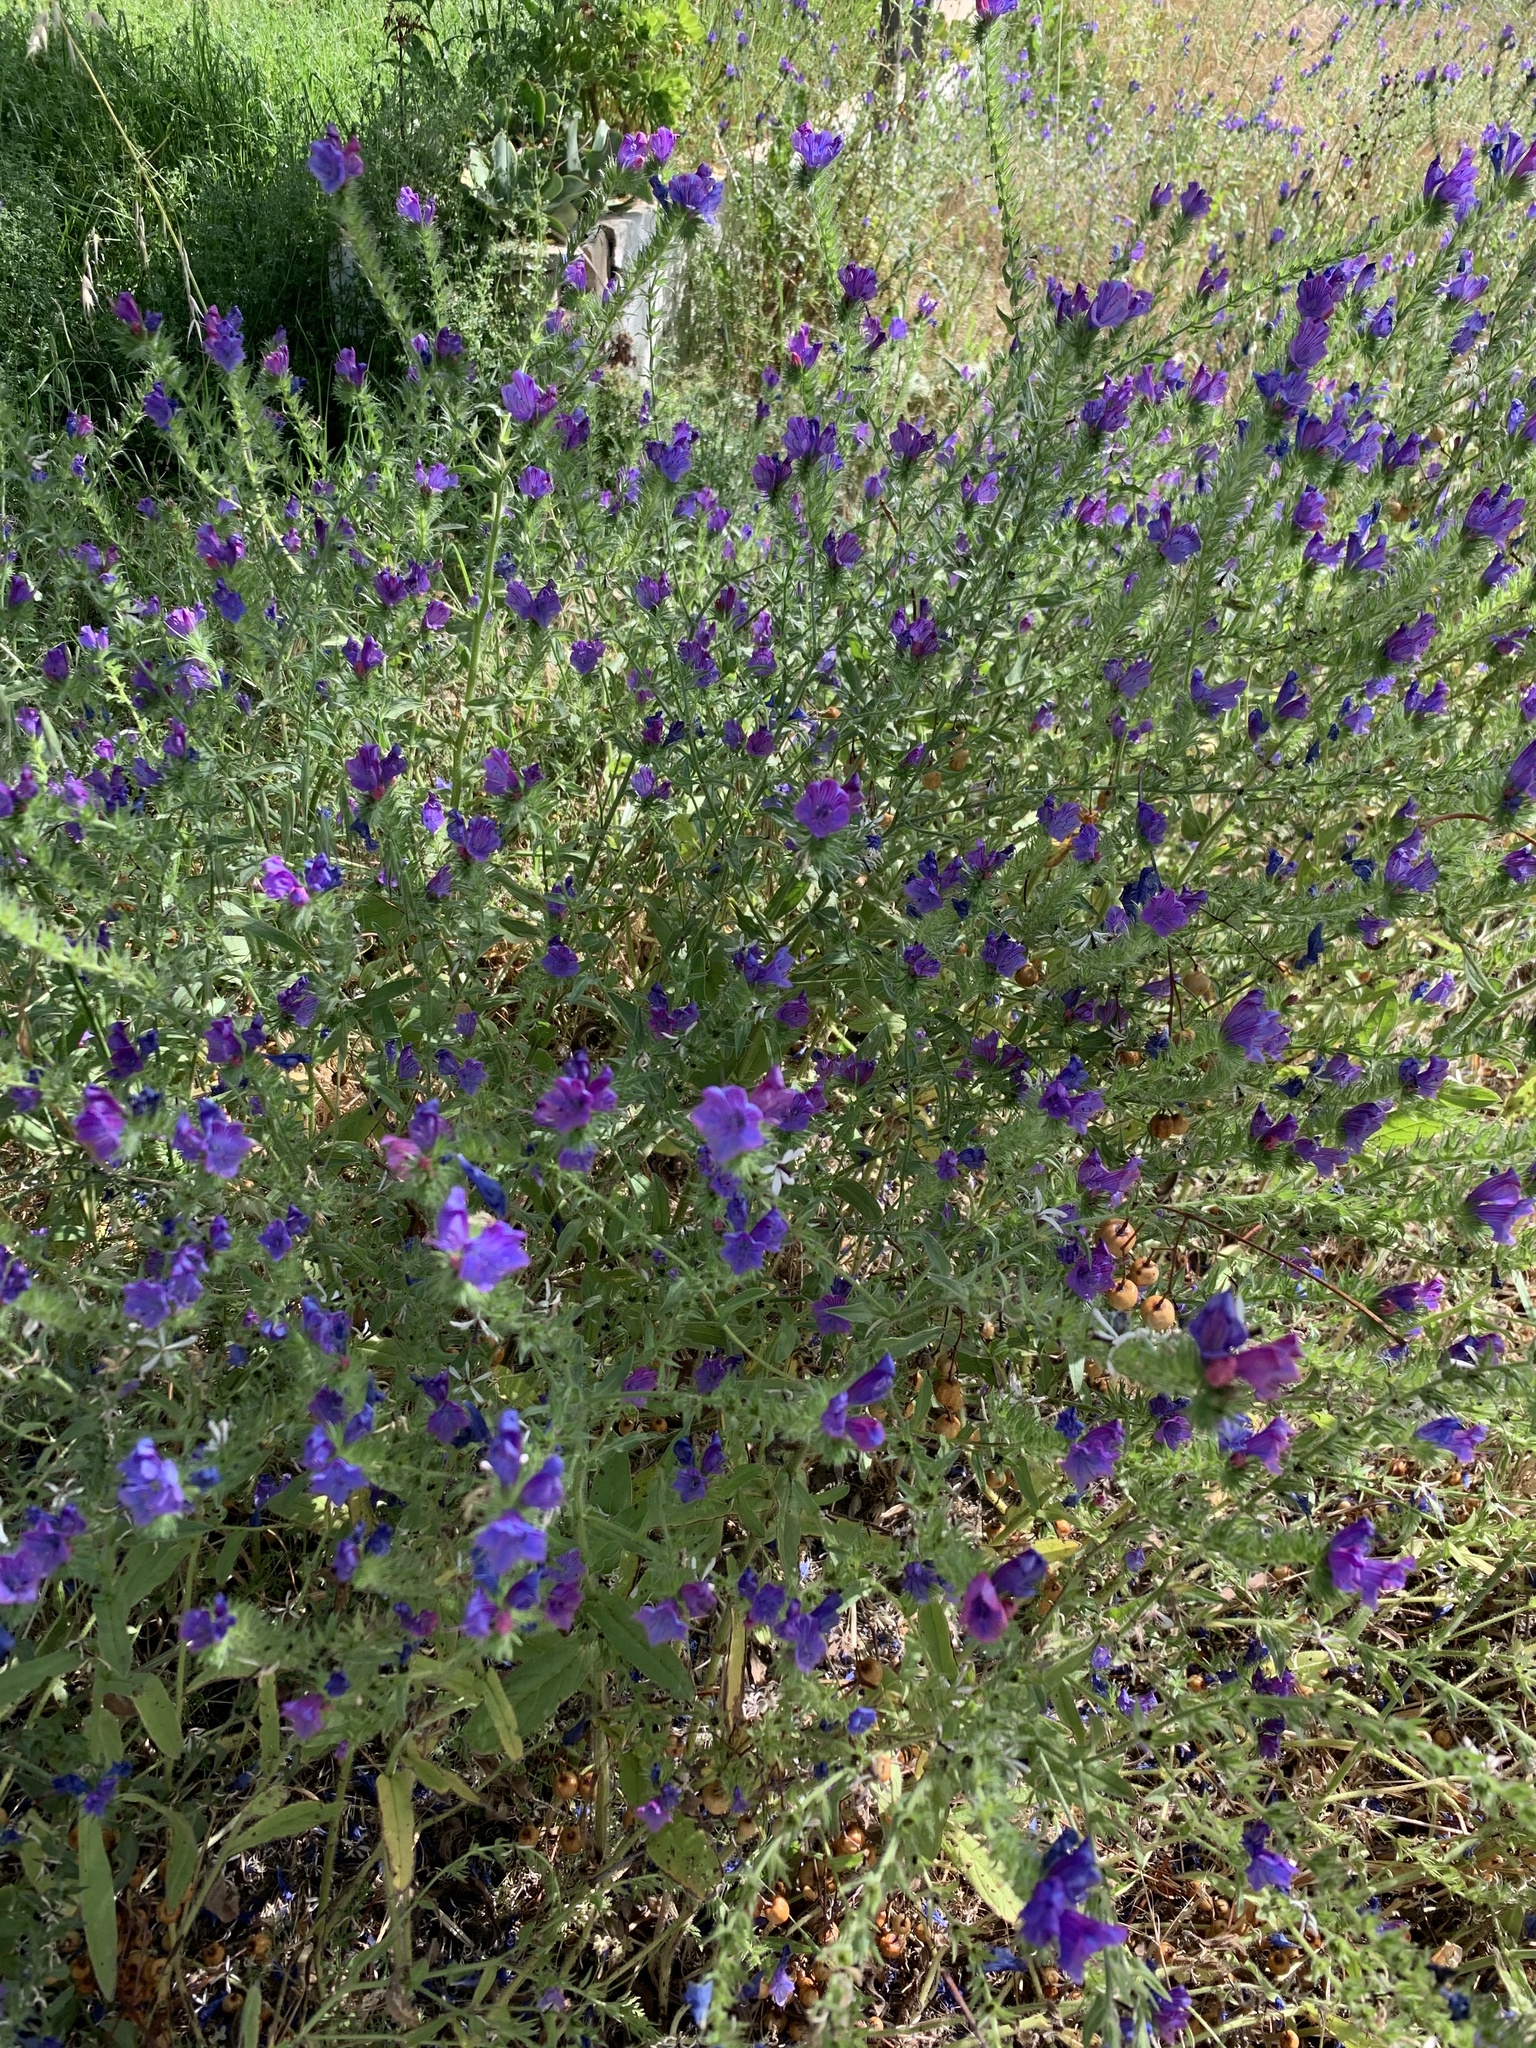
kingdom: Plantae
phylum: Tracheophyta
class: Magnoliopsida
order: Boraginales
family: Boraginaceae
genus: Echium
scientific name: Echium plantagineum
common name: Purple viper's-bugloss
